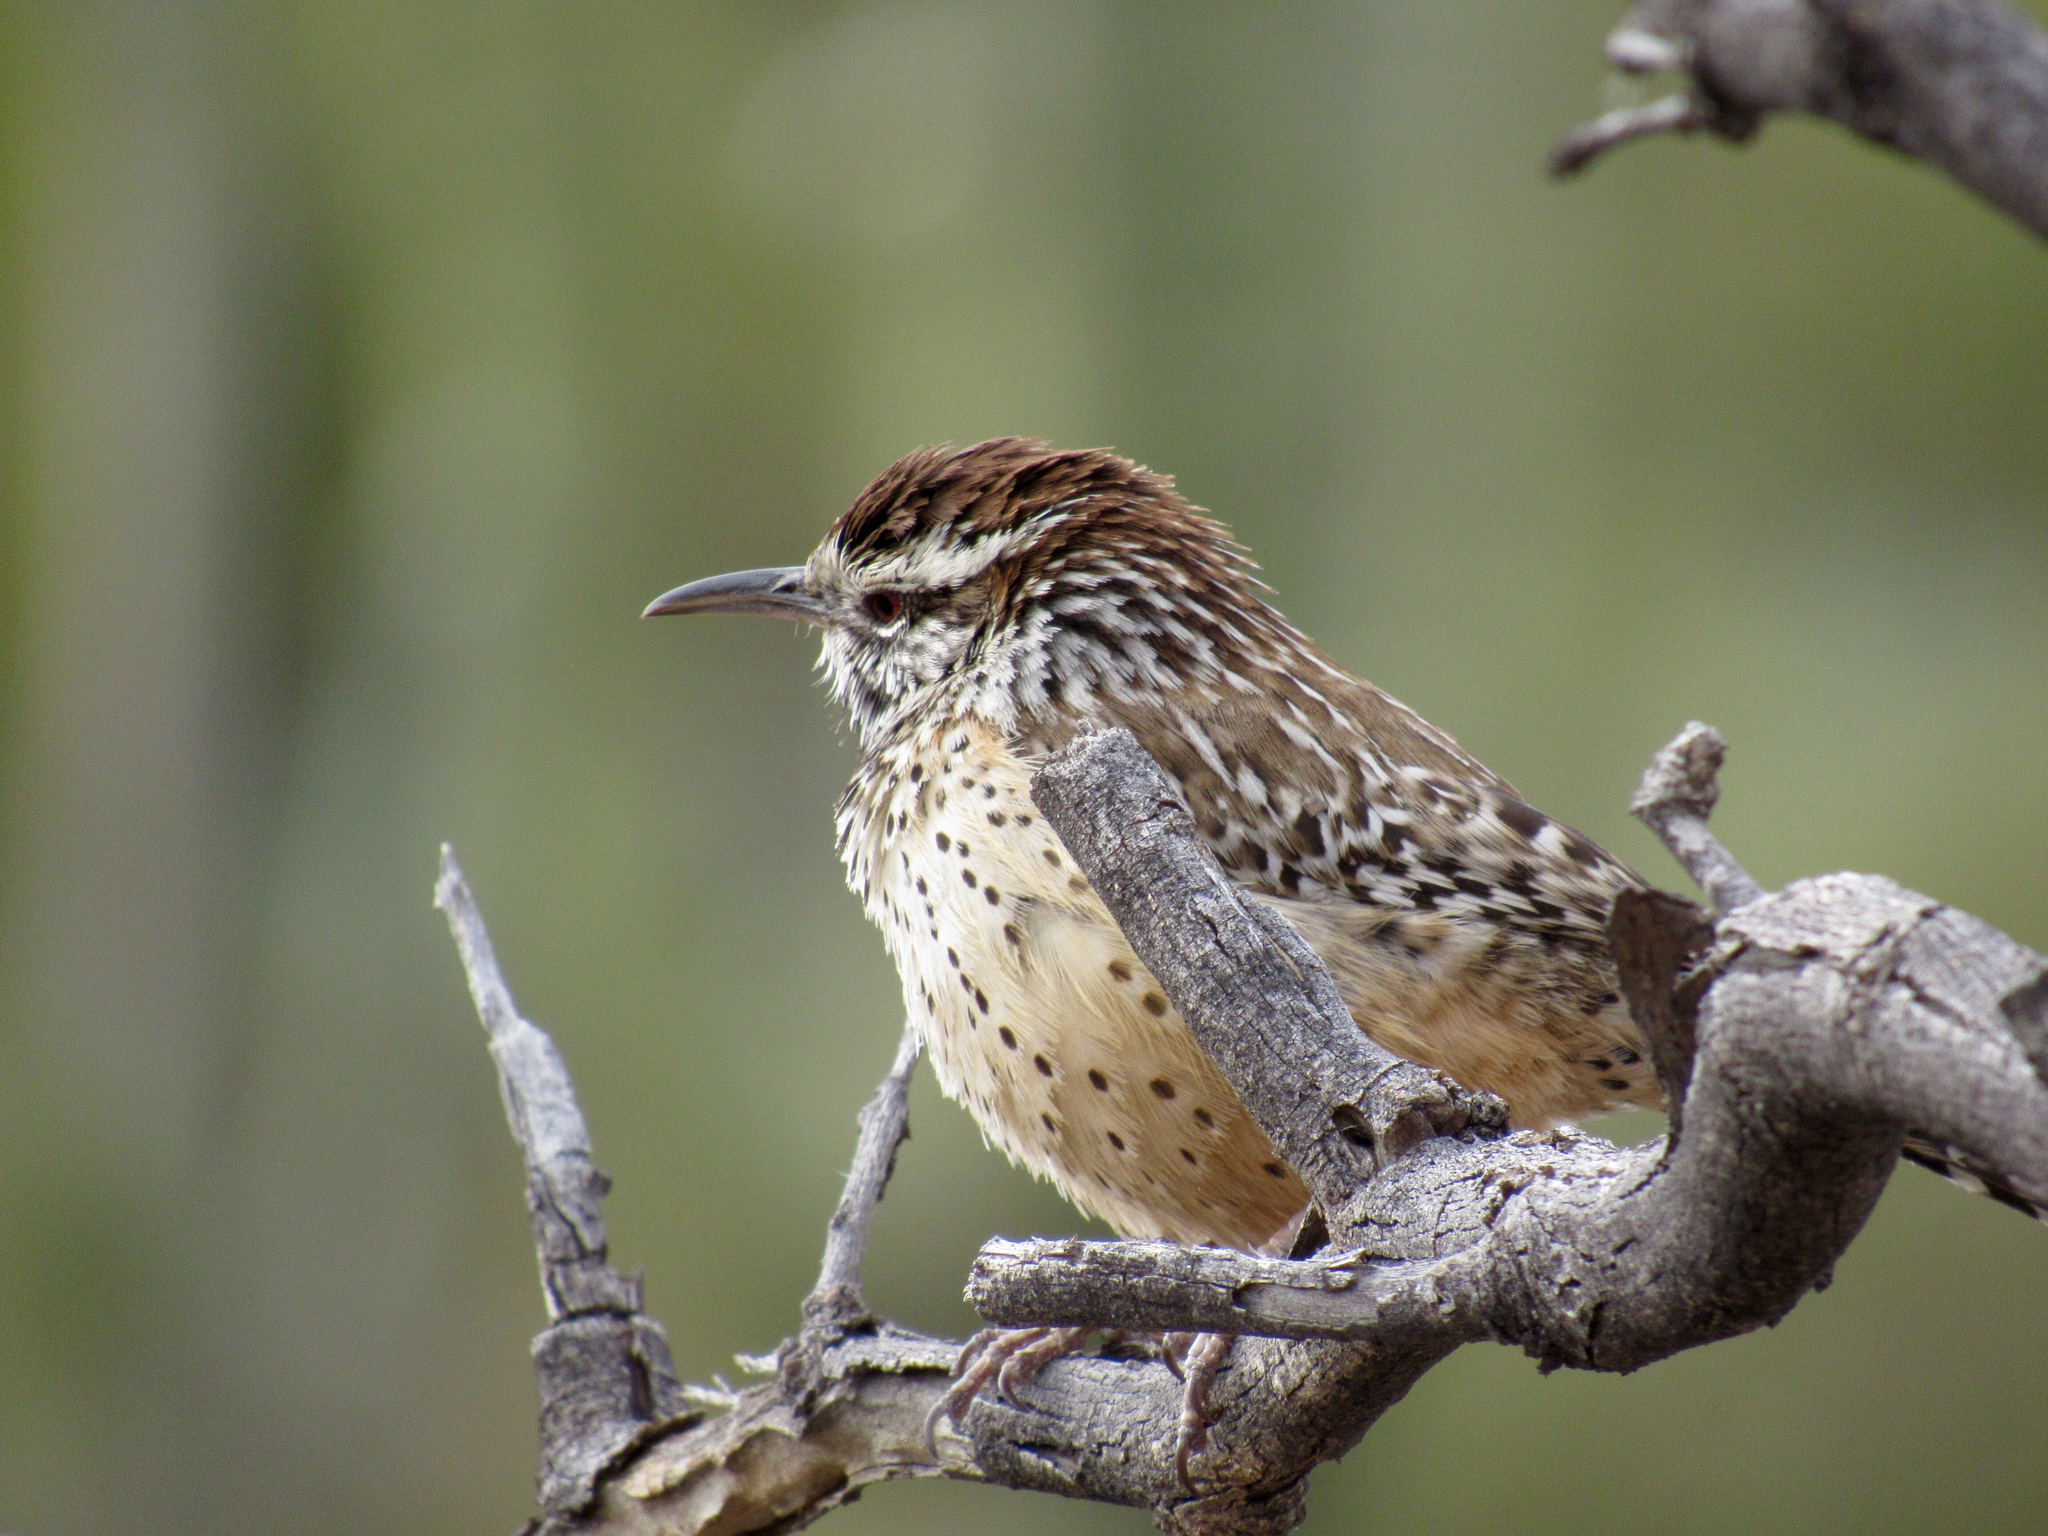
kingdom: Animalia
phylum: Chordata
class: Aves
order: Passeriformes
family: Troglodytidae
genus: Campylorhynchus
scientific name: Campylorhynchus brunneicapillus
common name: Cactus wren
